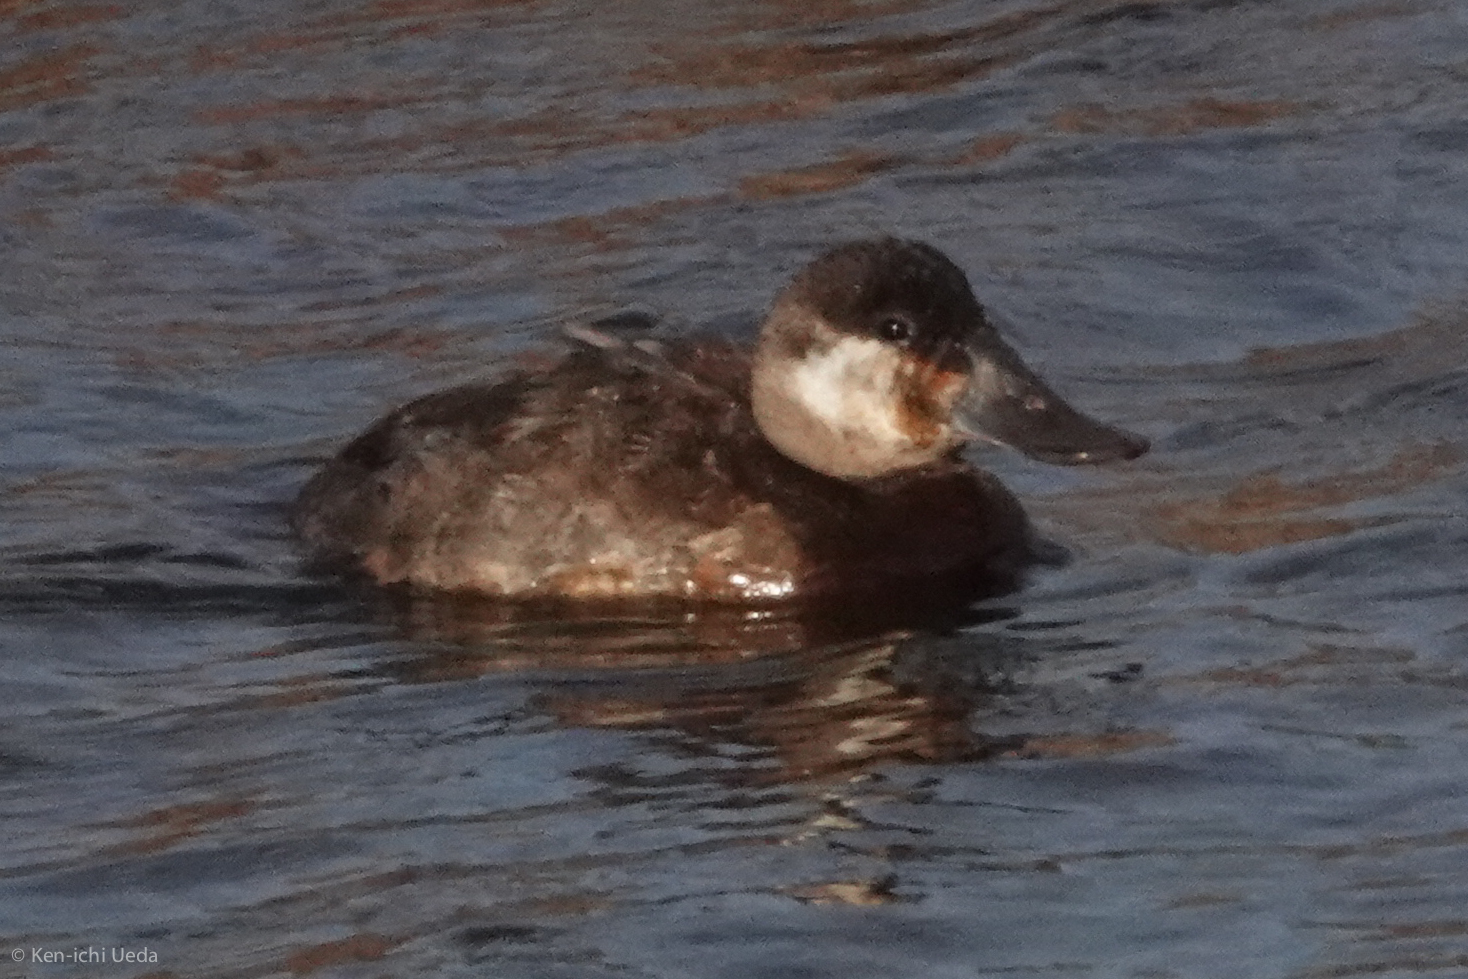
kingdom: Animalia
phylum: Chordata
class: Aves
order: Anseriformes
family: Anatidae
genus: Oxyura
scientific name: Oxyura jamaicensis
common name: Ruddy duck
